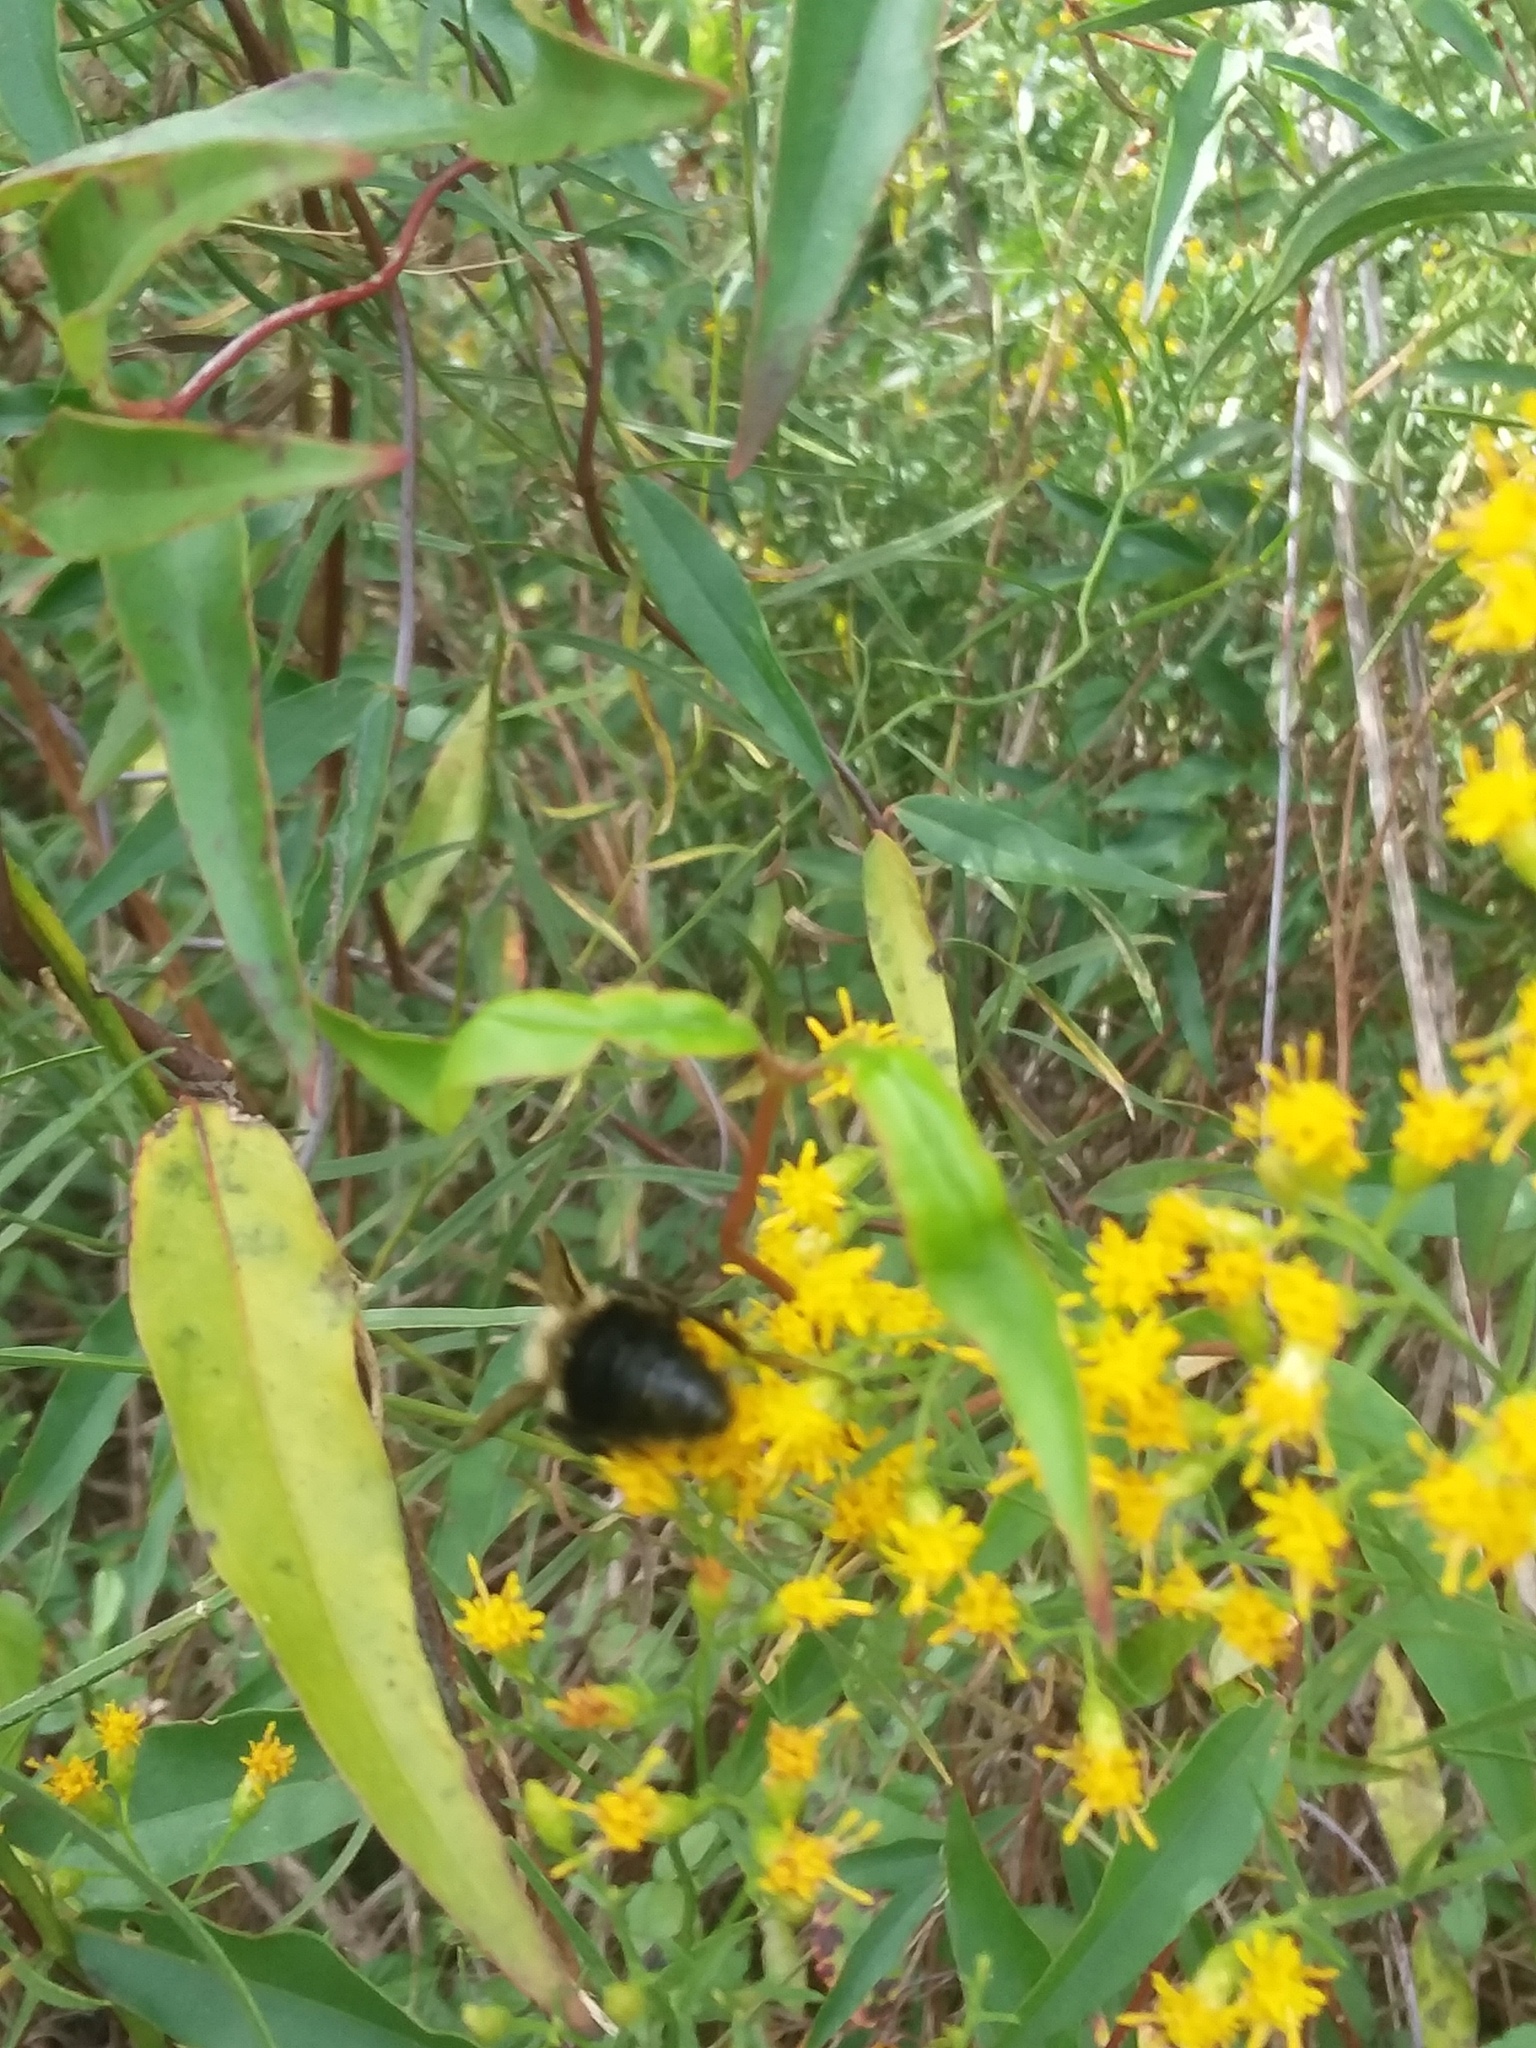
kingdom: Animalia
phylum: Arthropoda
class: Insecta
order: Hymenoptera
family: Apidae
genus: Bombus
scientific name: Bombus impatiens
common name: Common eastern bumble bee
